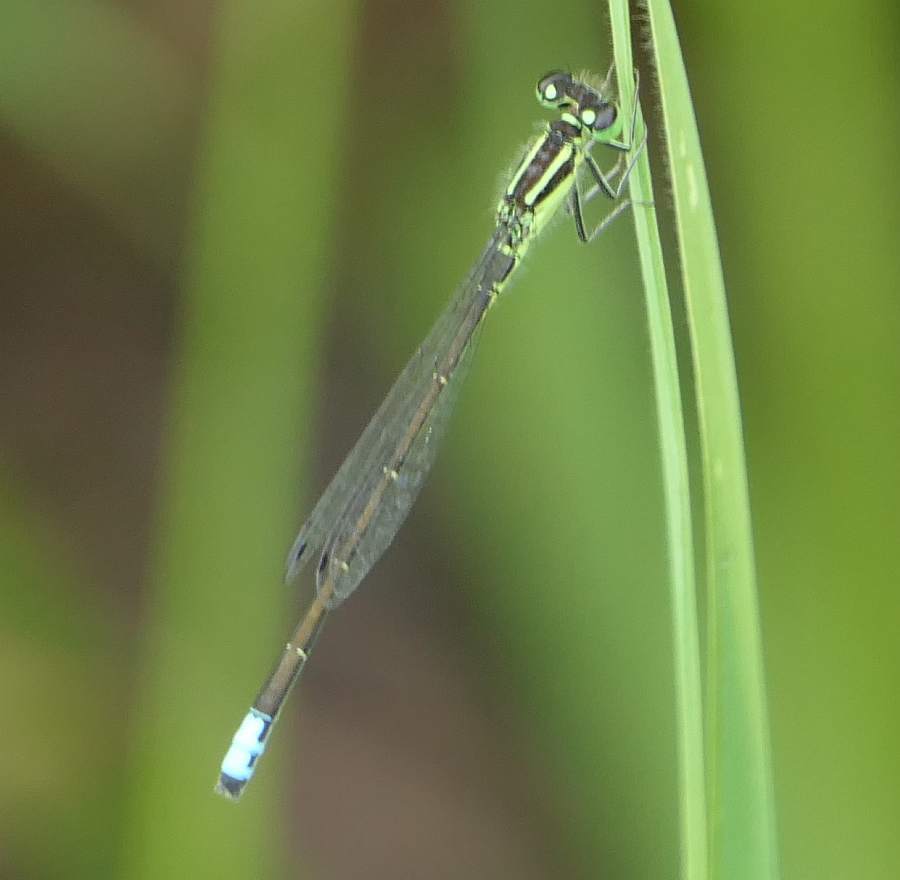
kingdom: Animalia
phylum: Arthropoda
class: Insecta
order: Odonata
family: Coenagrionidae
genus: Ischnura
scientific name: Ischnura verticalis
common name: Eastern forktail
